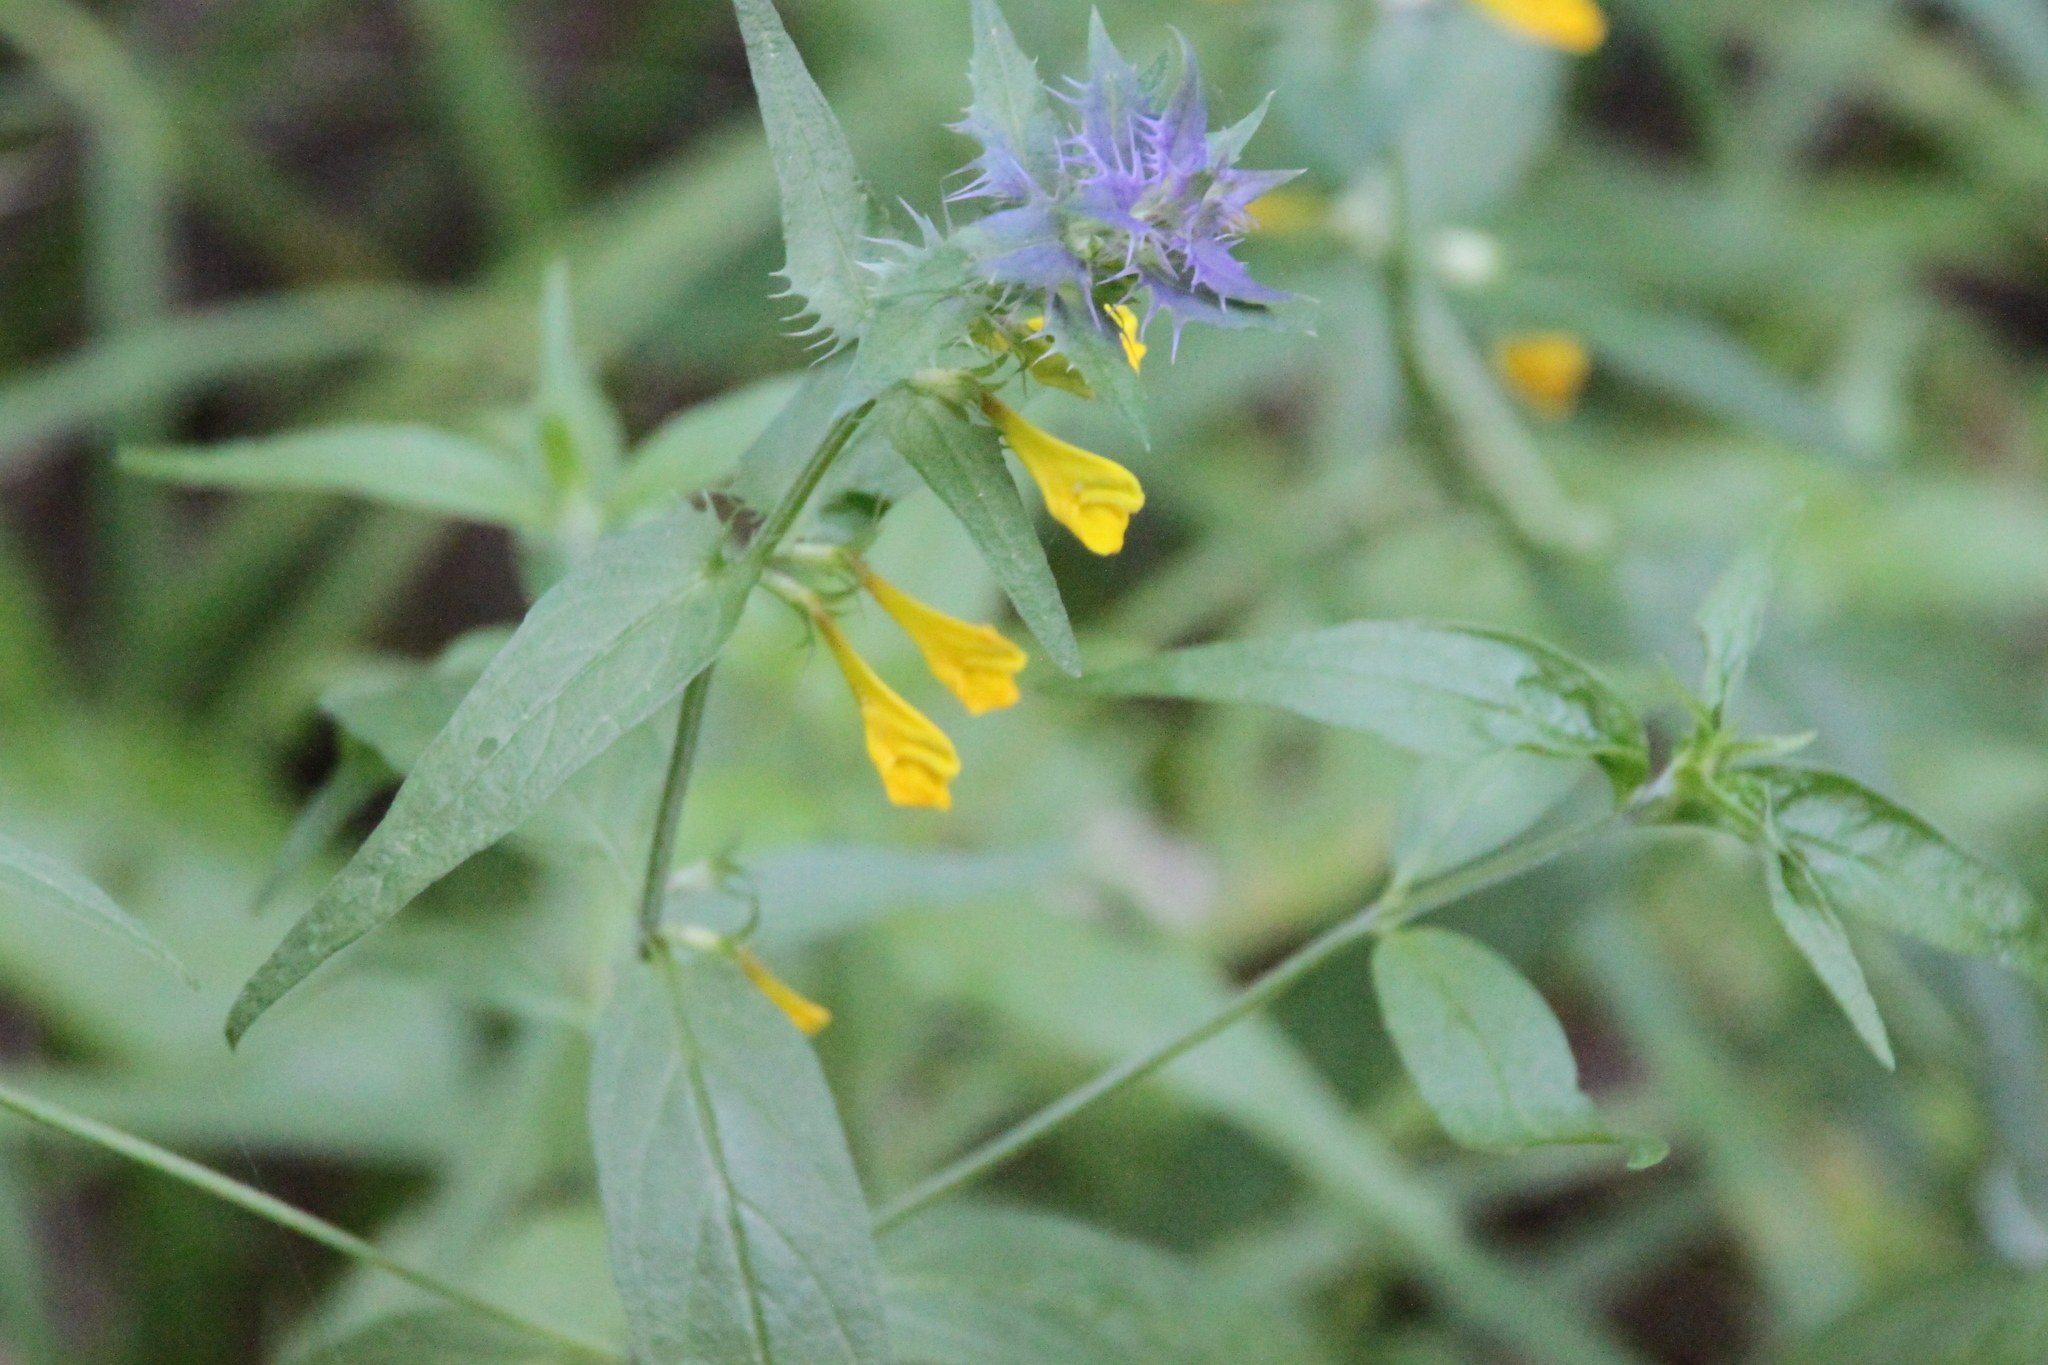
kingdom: Plantae
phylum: Tracheophyta
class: Magnoliopsida
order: Lamiales
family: Orobanchaceae
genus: Melampyrum
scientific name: Melampyrum nemorosum
